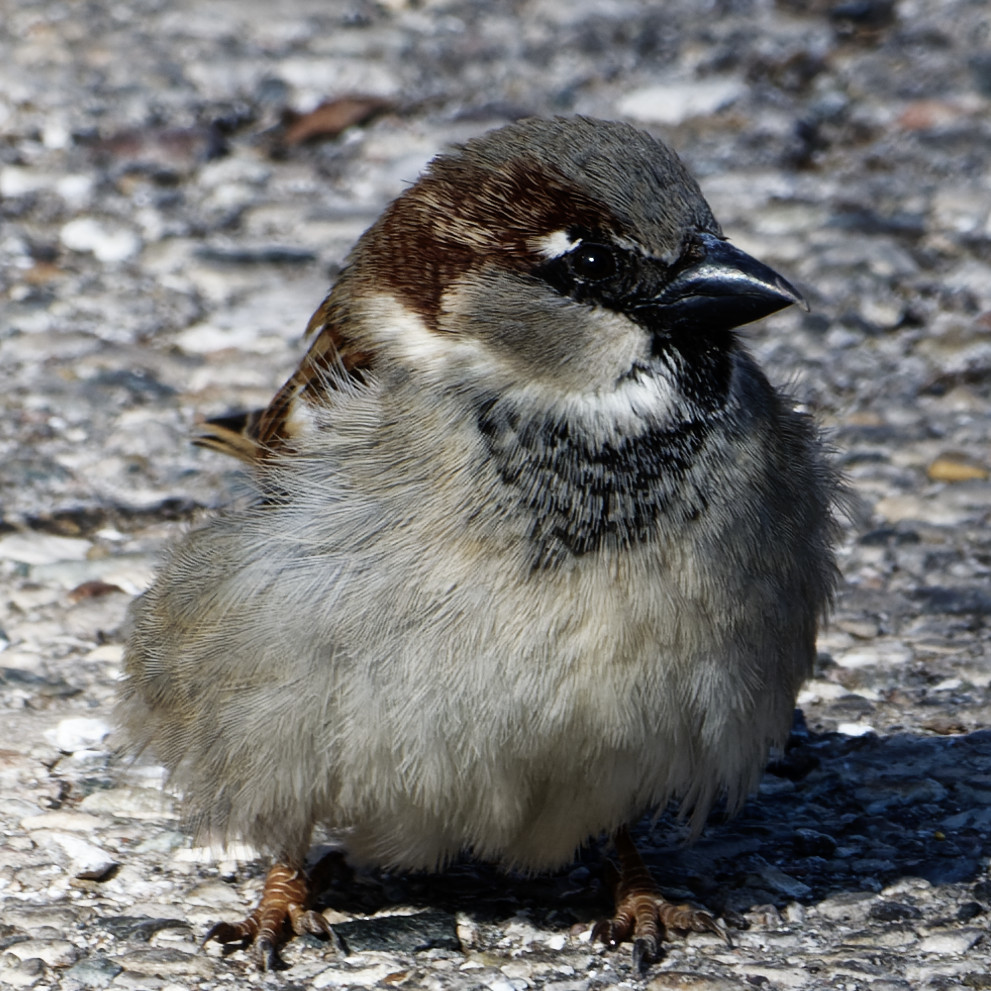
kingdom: Animalia
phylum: Chordata
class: Aves
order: Passeriformes
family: Passeridae
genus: Passer
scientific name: Passer domesticus
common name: House sparrow
